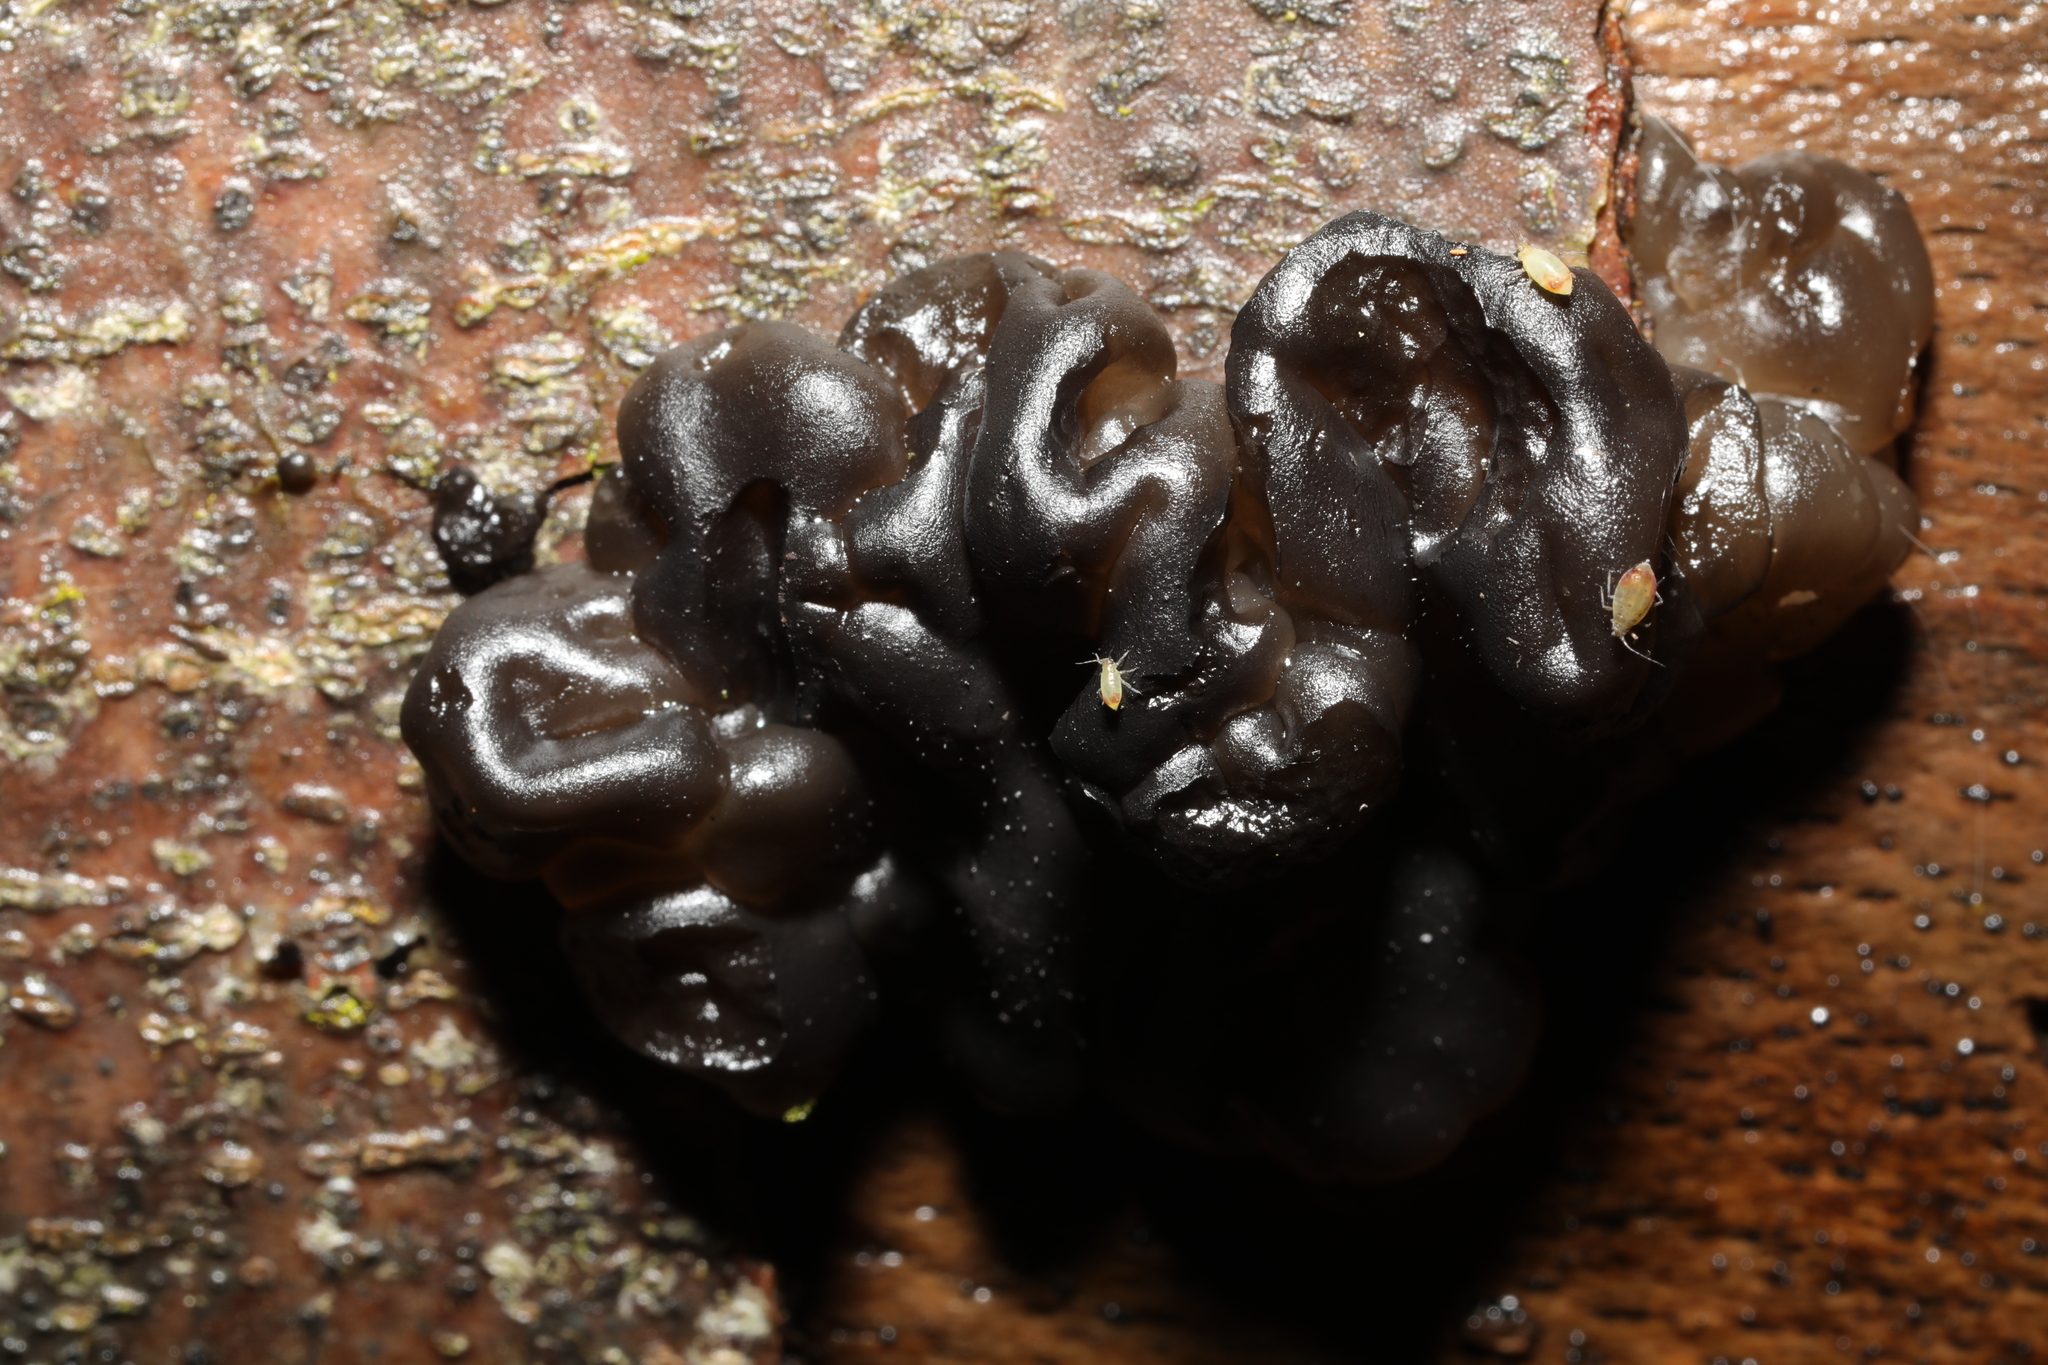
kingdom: Fungi
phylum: Basidiomycota
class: Agaricomycetes
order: Auriculariales
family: Auriculariaceae
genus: Exidia
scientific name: Exidia nigricans
